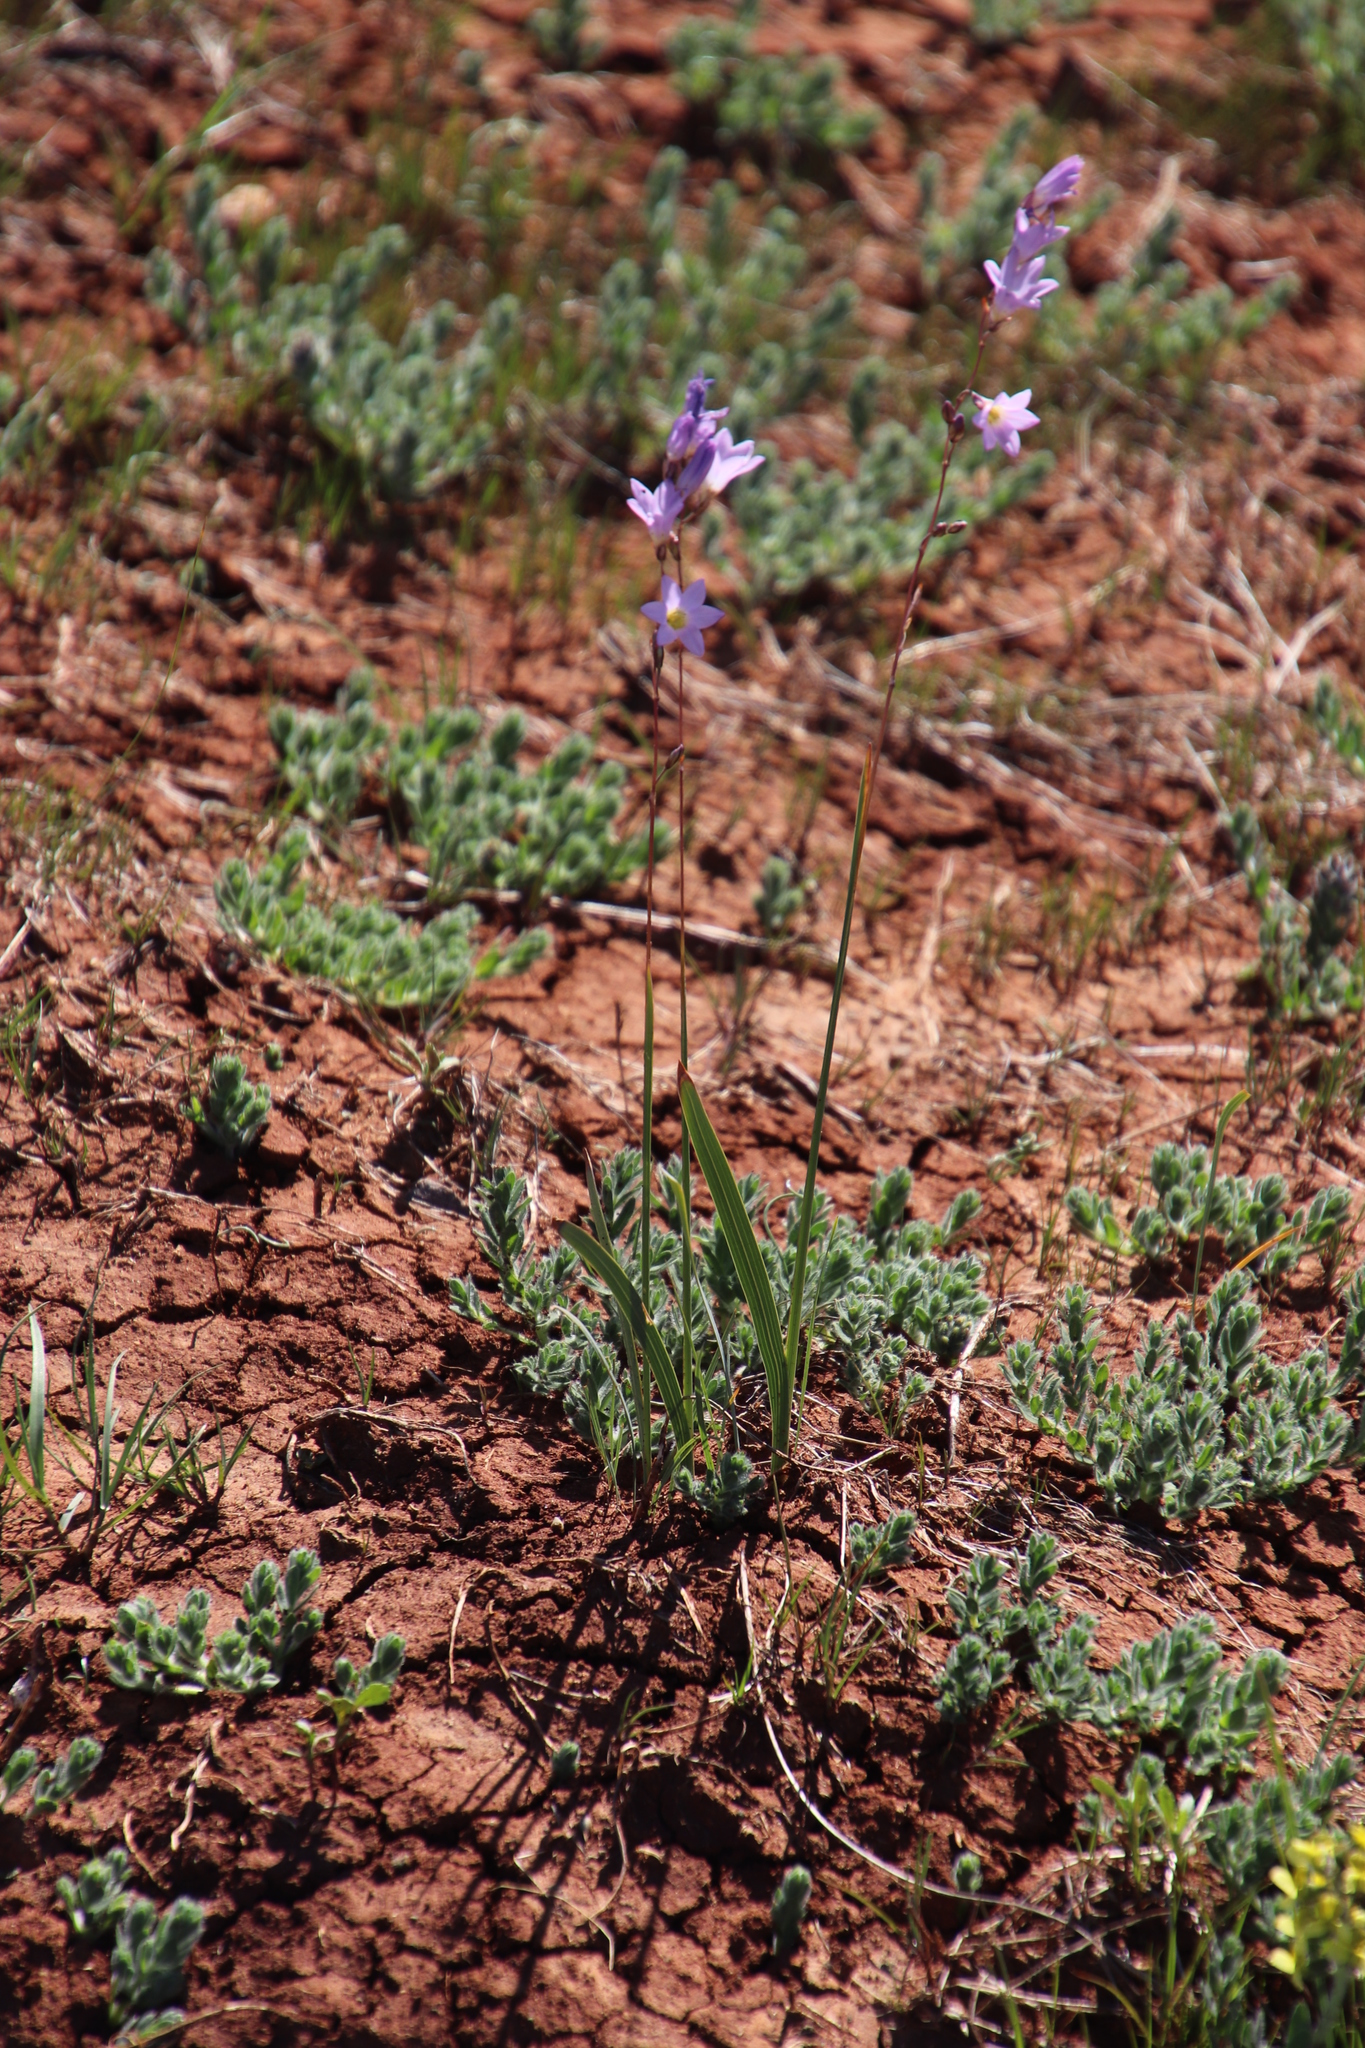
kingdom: Plantae
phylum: Tracheophyta
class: Liliopsida
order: Asparagales
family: Iridaceae
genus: Ixia
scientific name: Ixia rapunculoides
